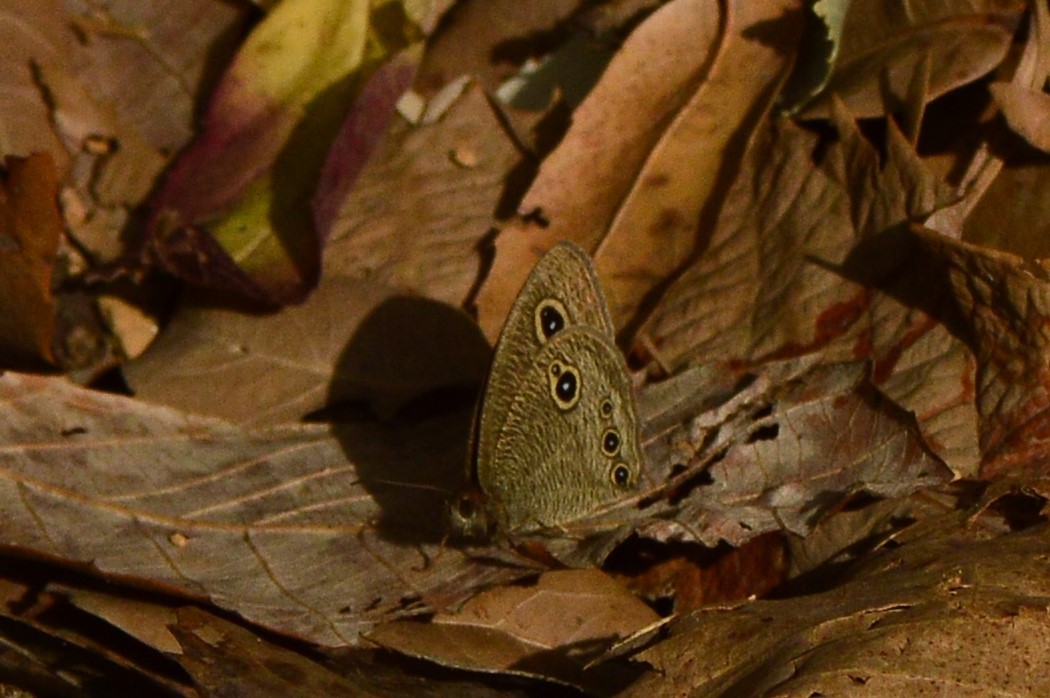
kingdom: Animalia
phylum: Arthropoda
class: Insecta
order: Lepidoptera
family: Nymphalidae
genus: Ypthima
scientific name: Ypthima nikaea
